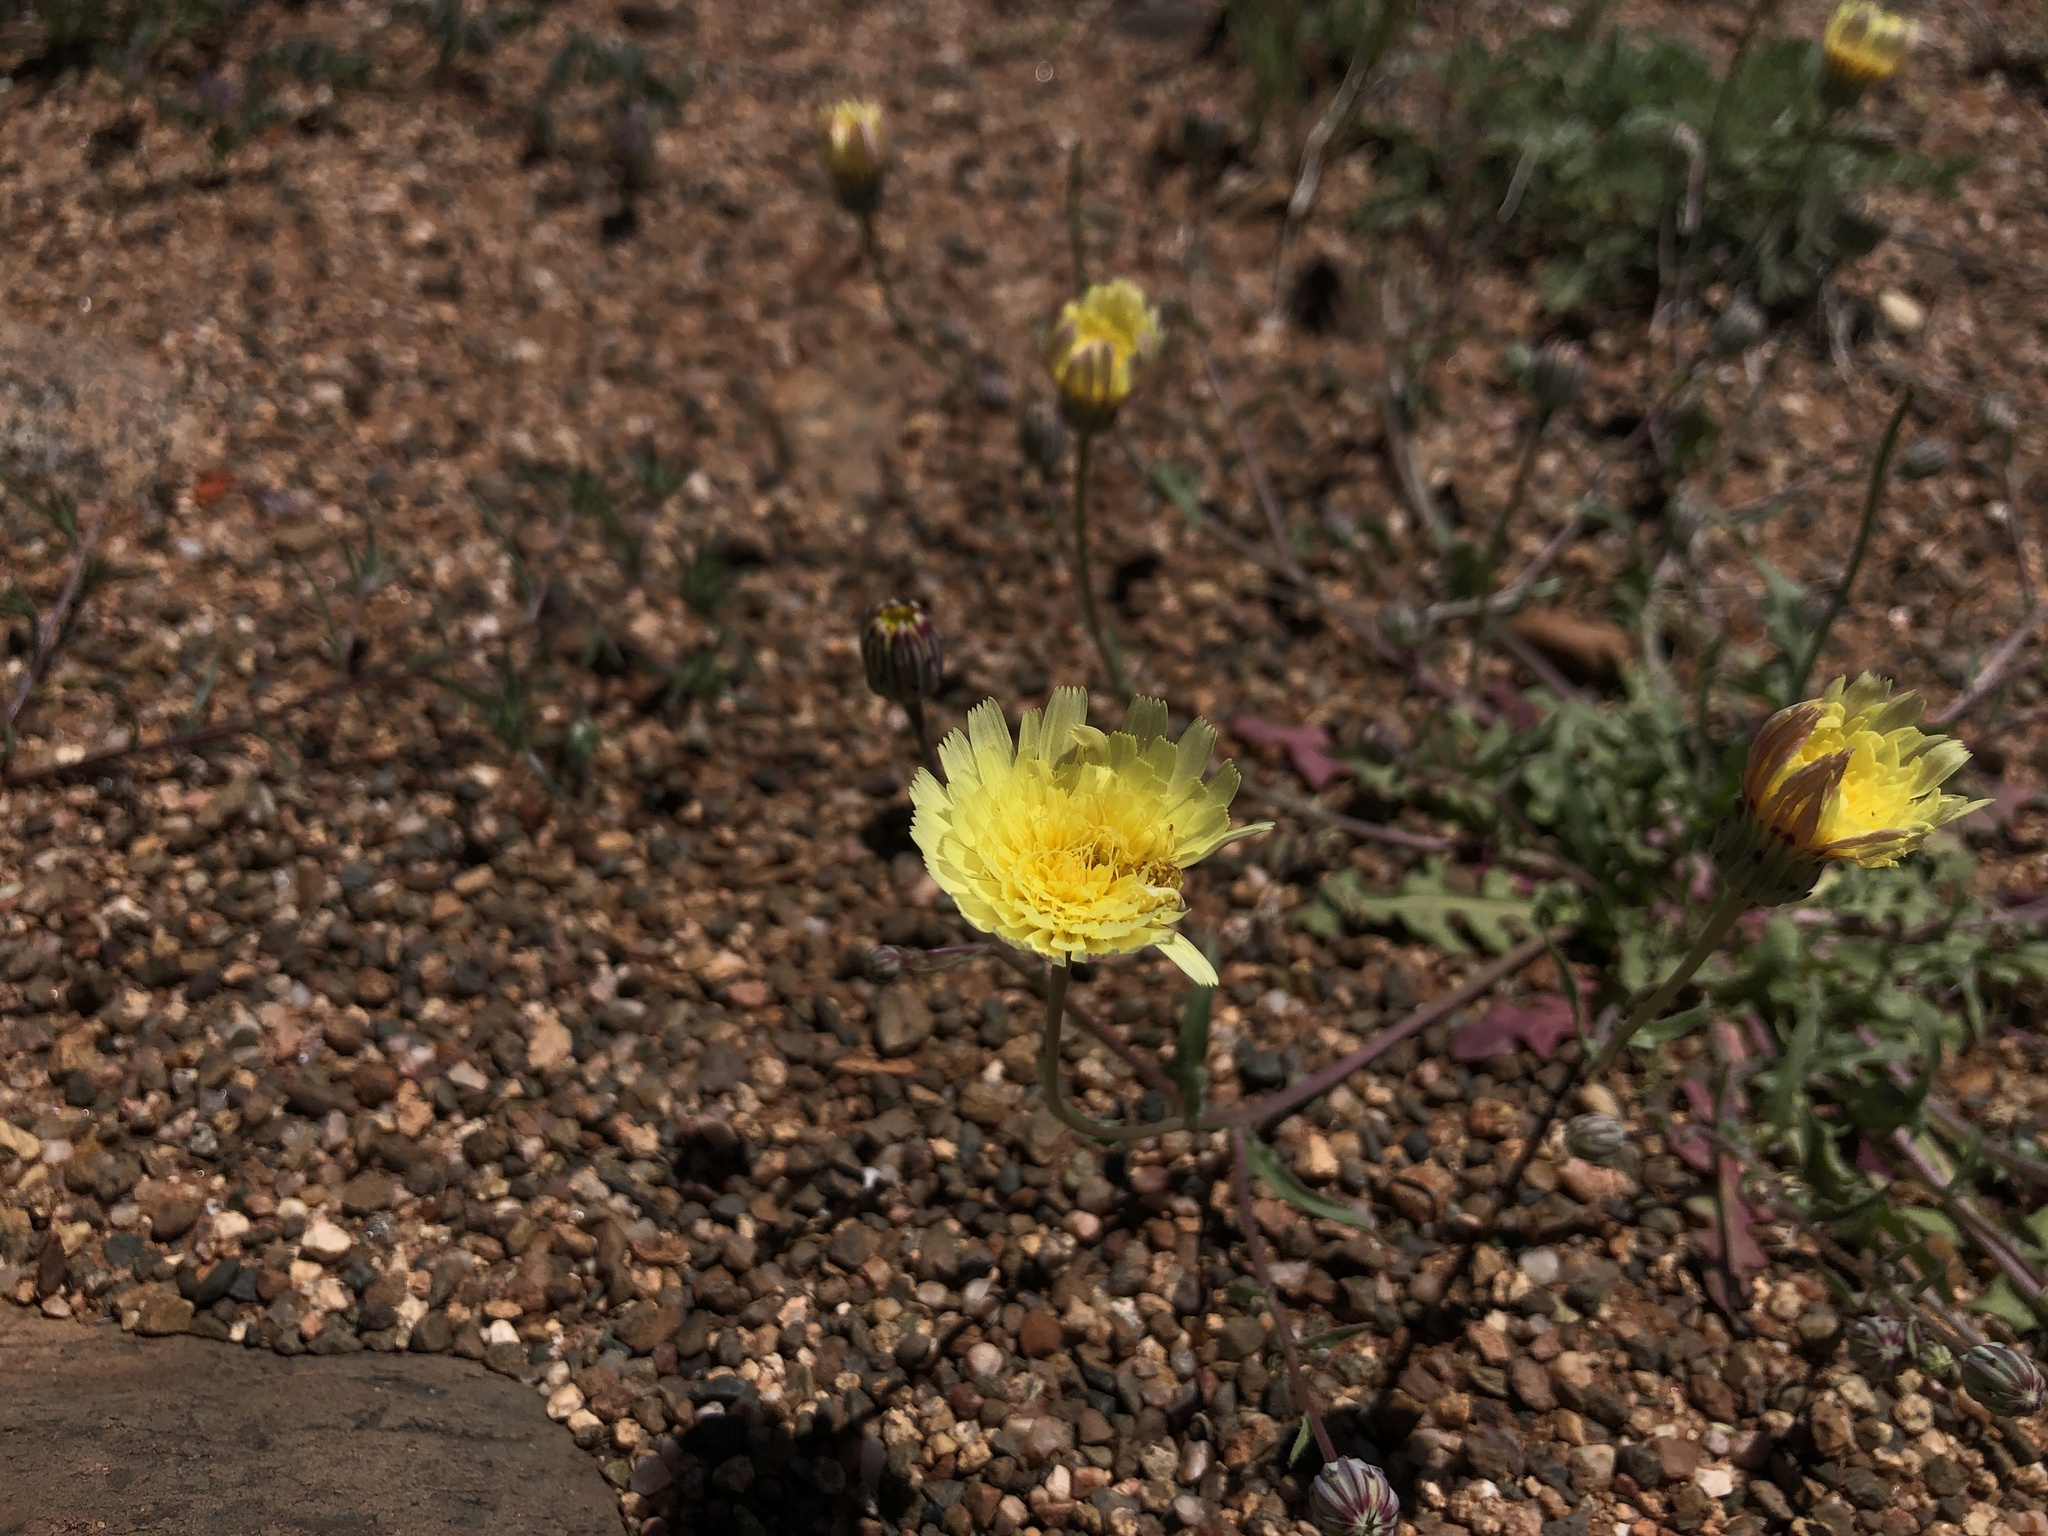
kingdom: Plantae
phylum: Tracheophyta
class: Magnoliopsida
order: Asterales
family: Asteraceae
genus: Malacothrix
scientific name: Malacothrix glabrata
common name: Smooth desert-dandelion
